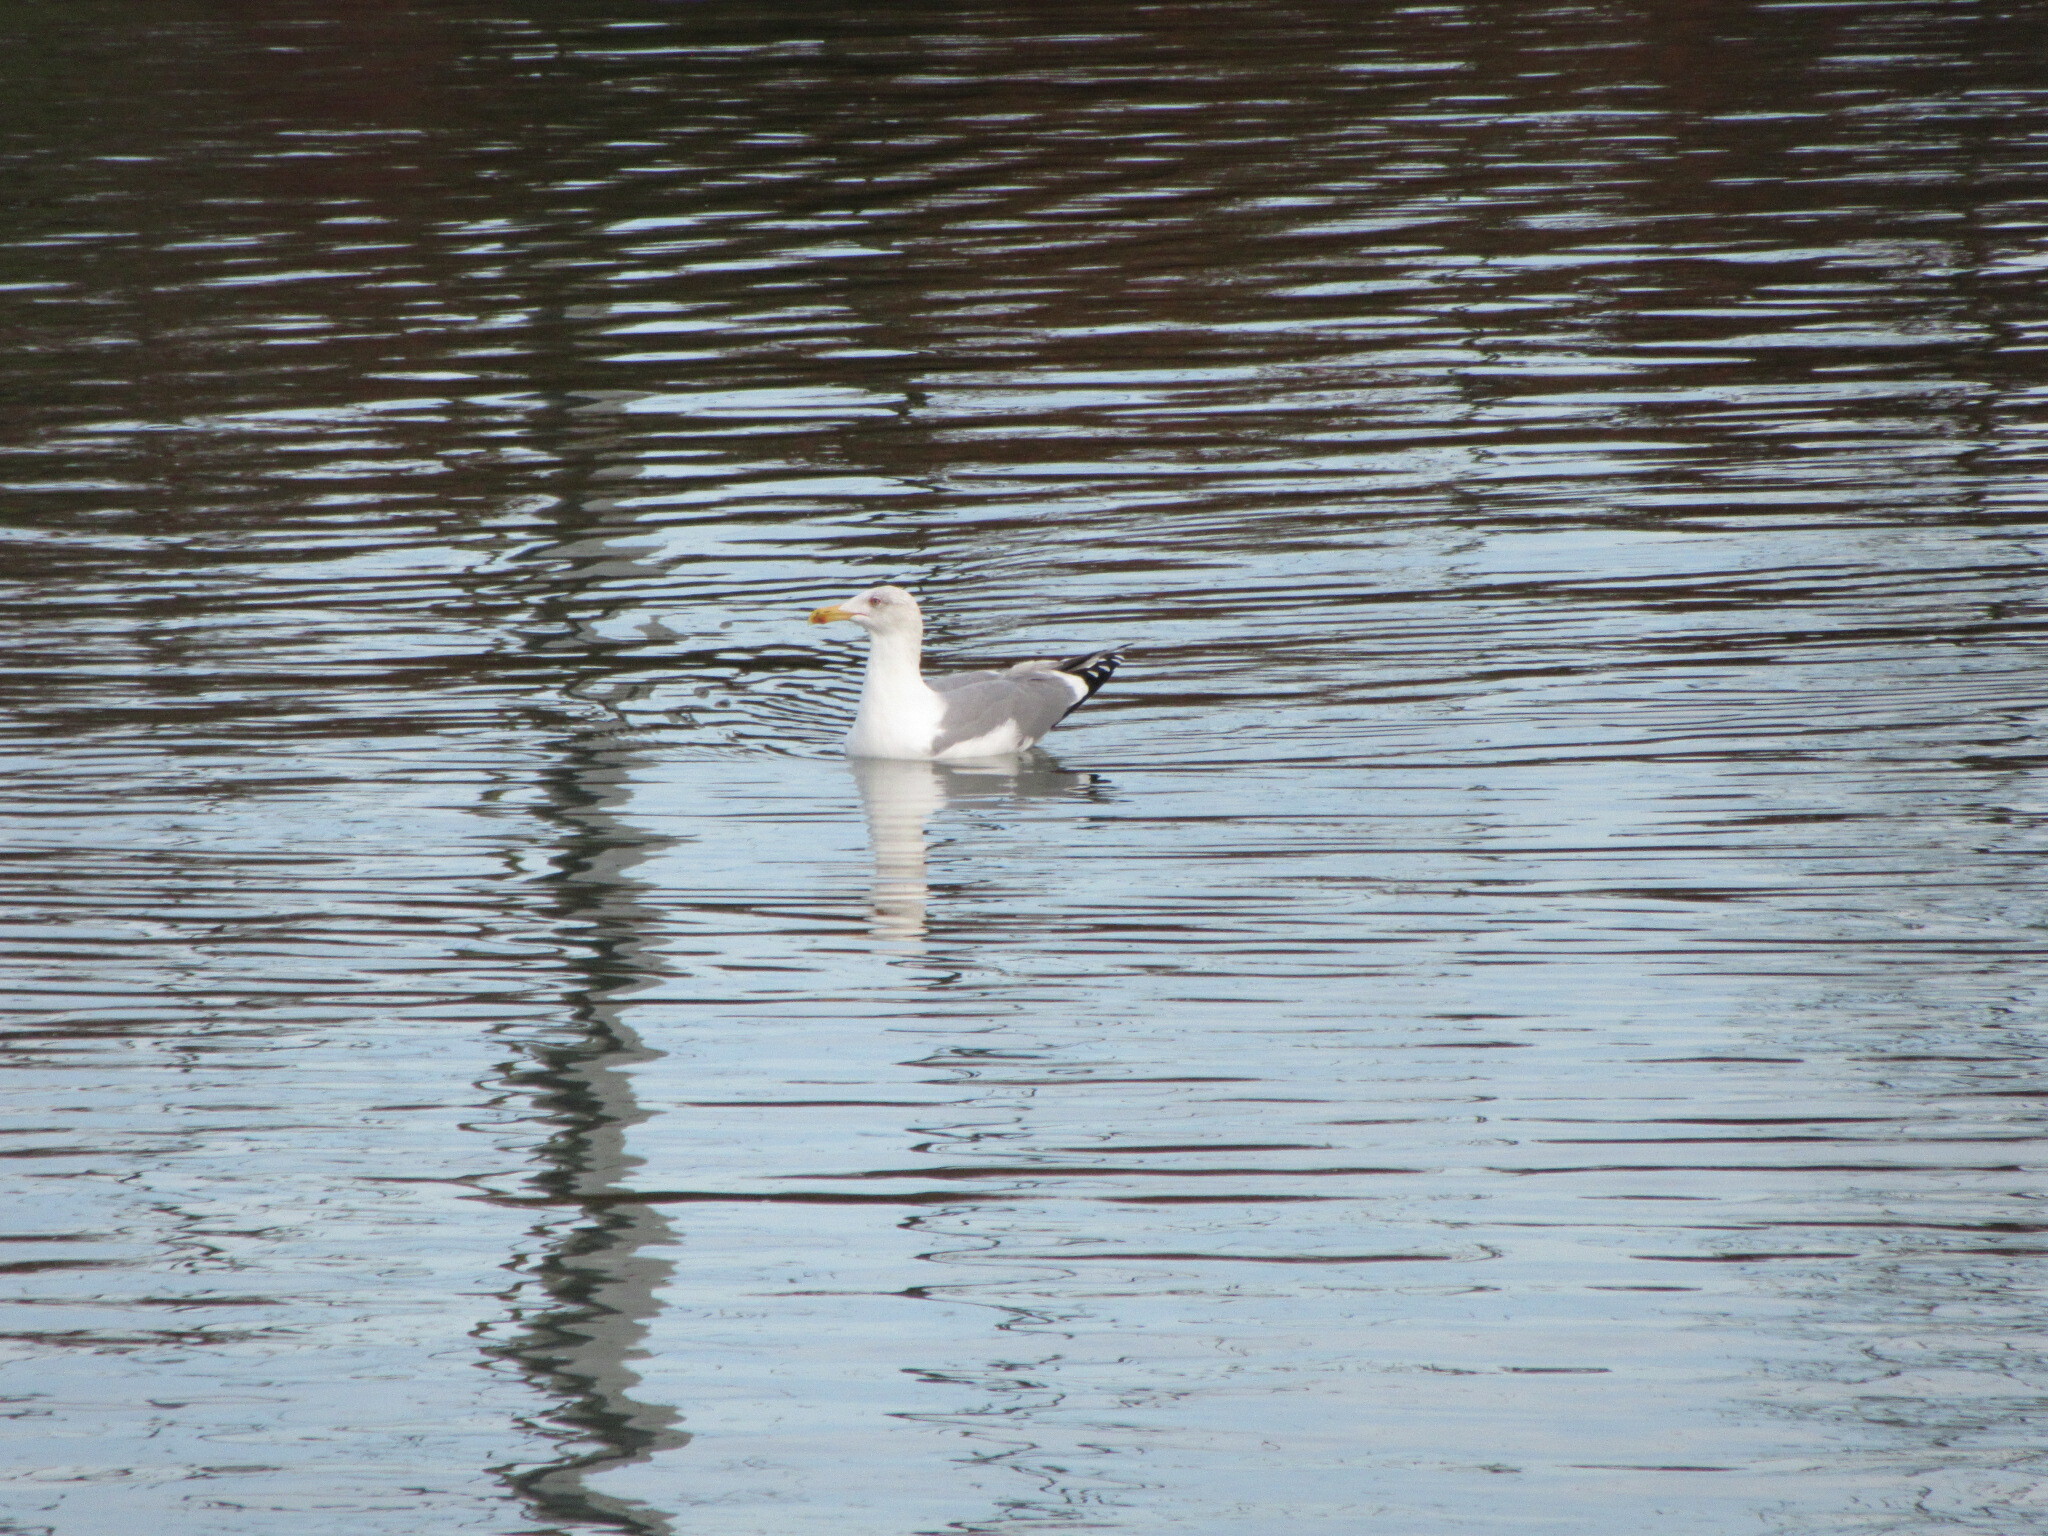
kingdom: Animalia
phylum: Chordata
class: Aves
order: Charadriiformes
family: Laridae
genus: Larus
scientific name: Larus michahellis
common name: Yellow-legged gull
